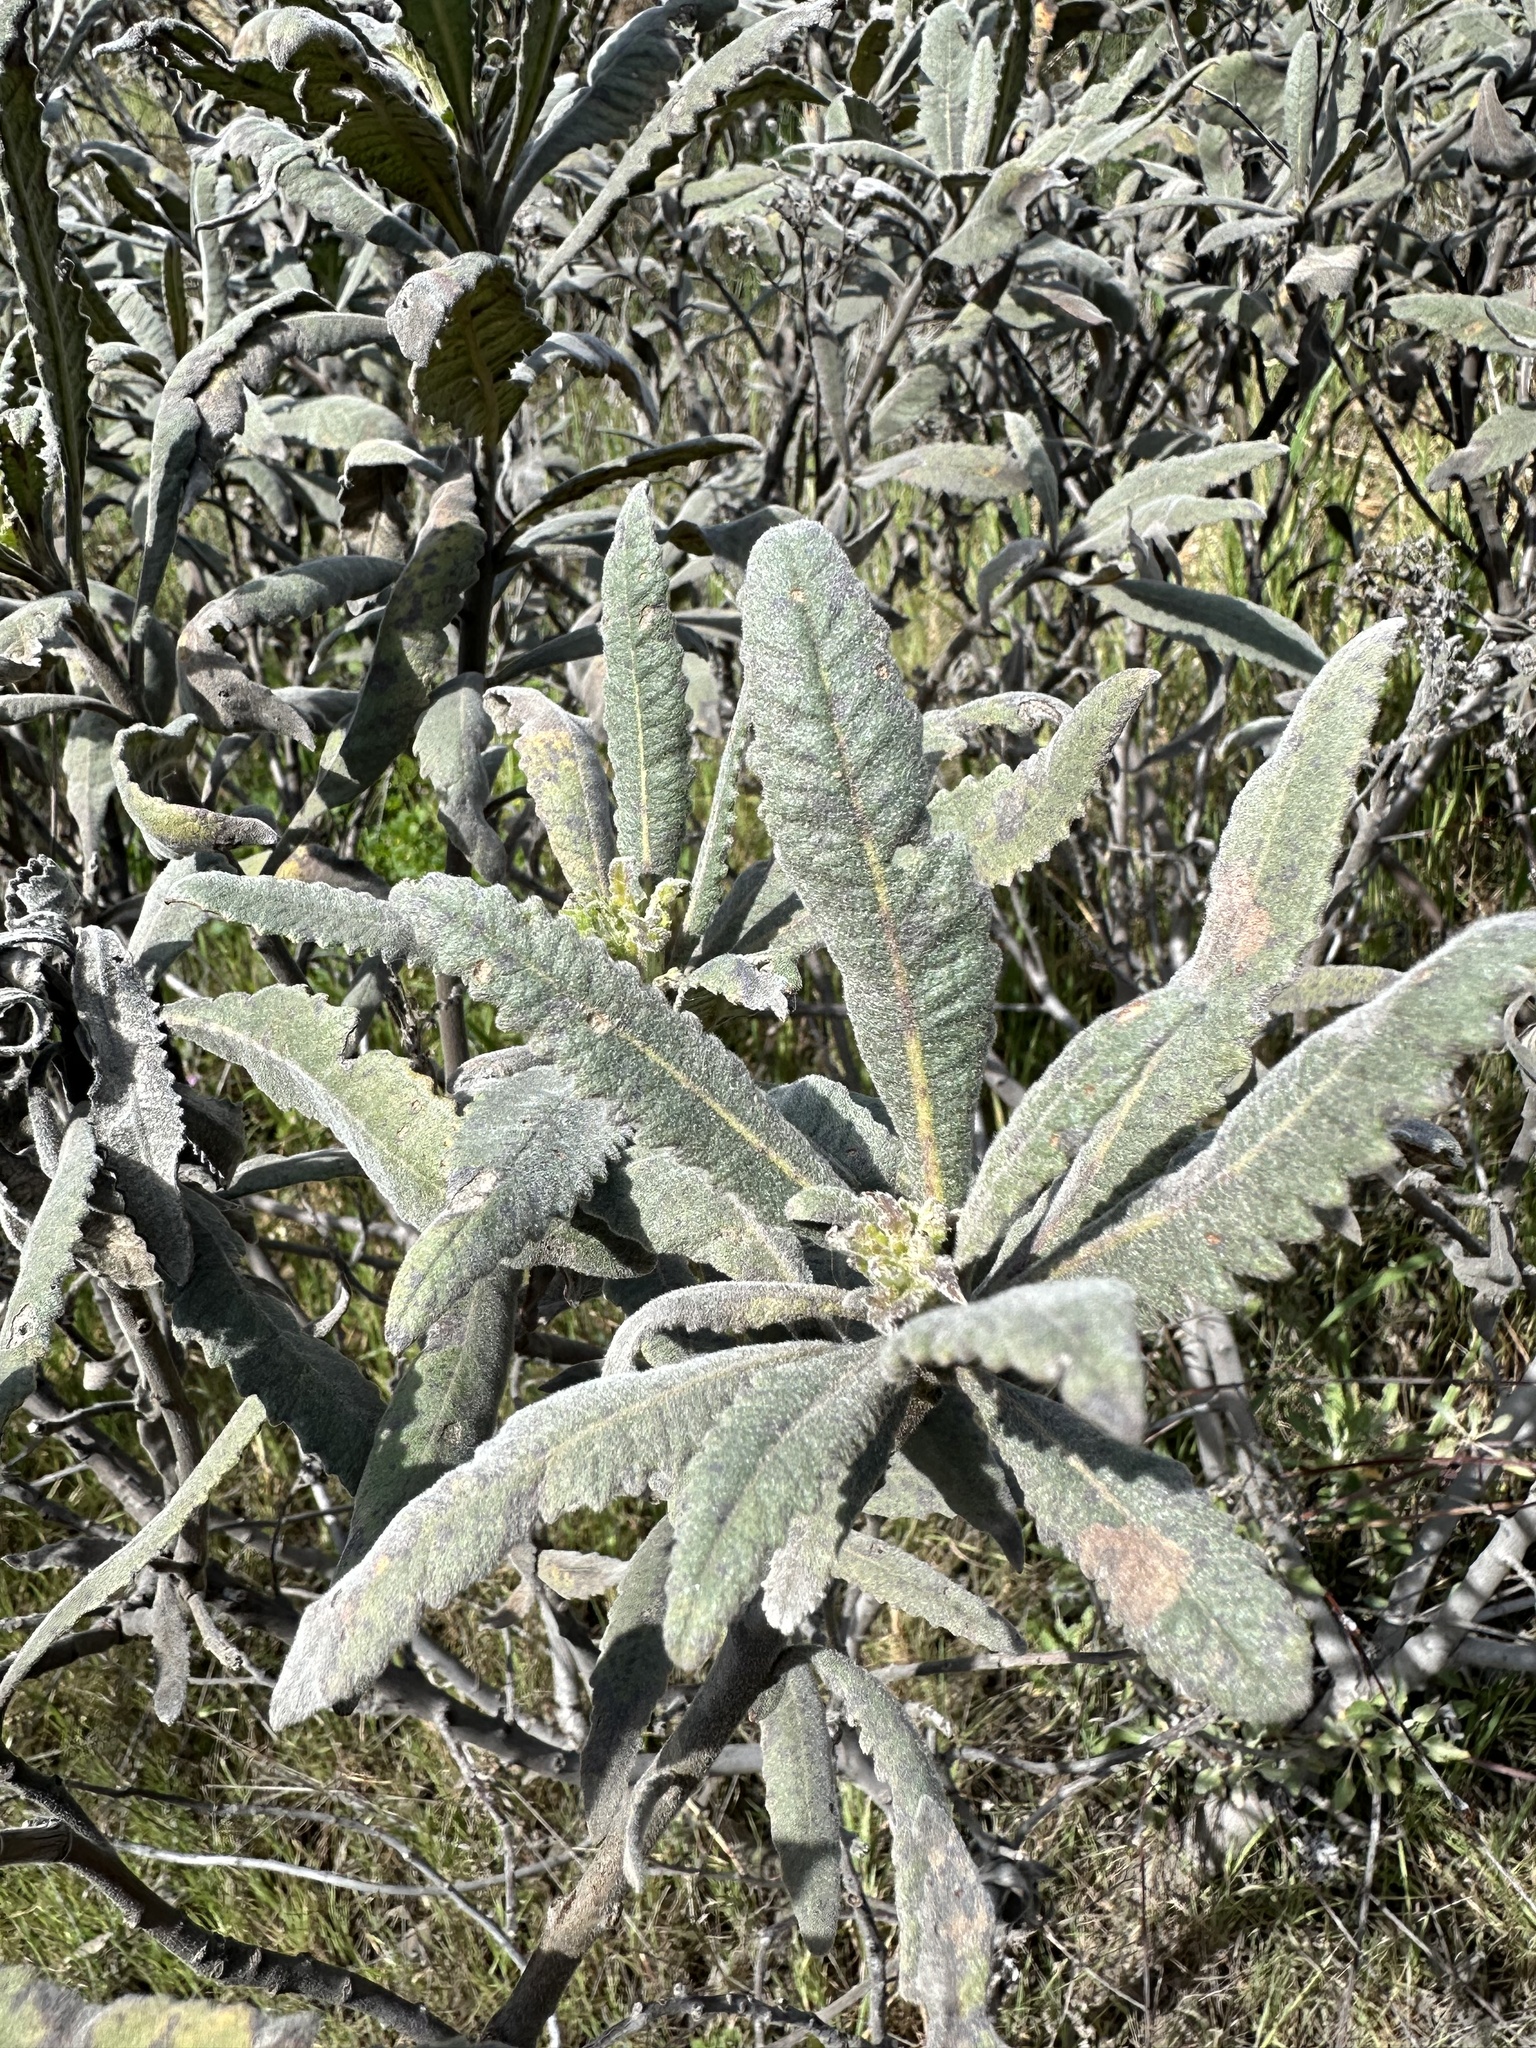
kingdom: Plantae
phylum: Tracheophyta
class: Magnoliopsida
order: Boraginales
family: Namaceae
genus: Eriodictyon
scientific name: Eriodictyon crassifolium
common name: Thick-leaf yerba-santa
